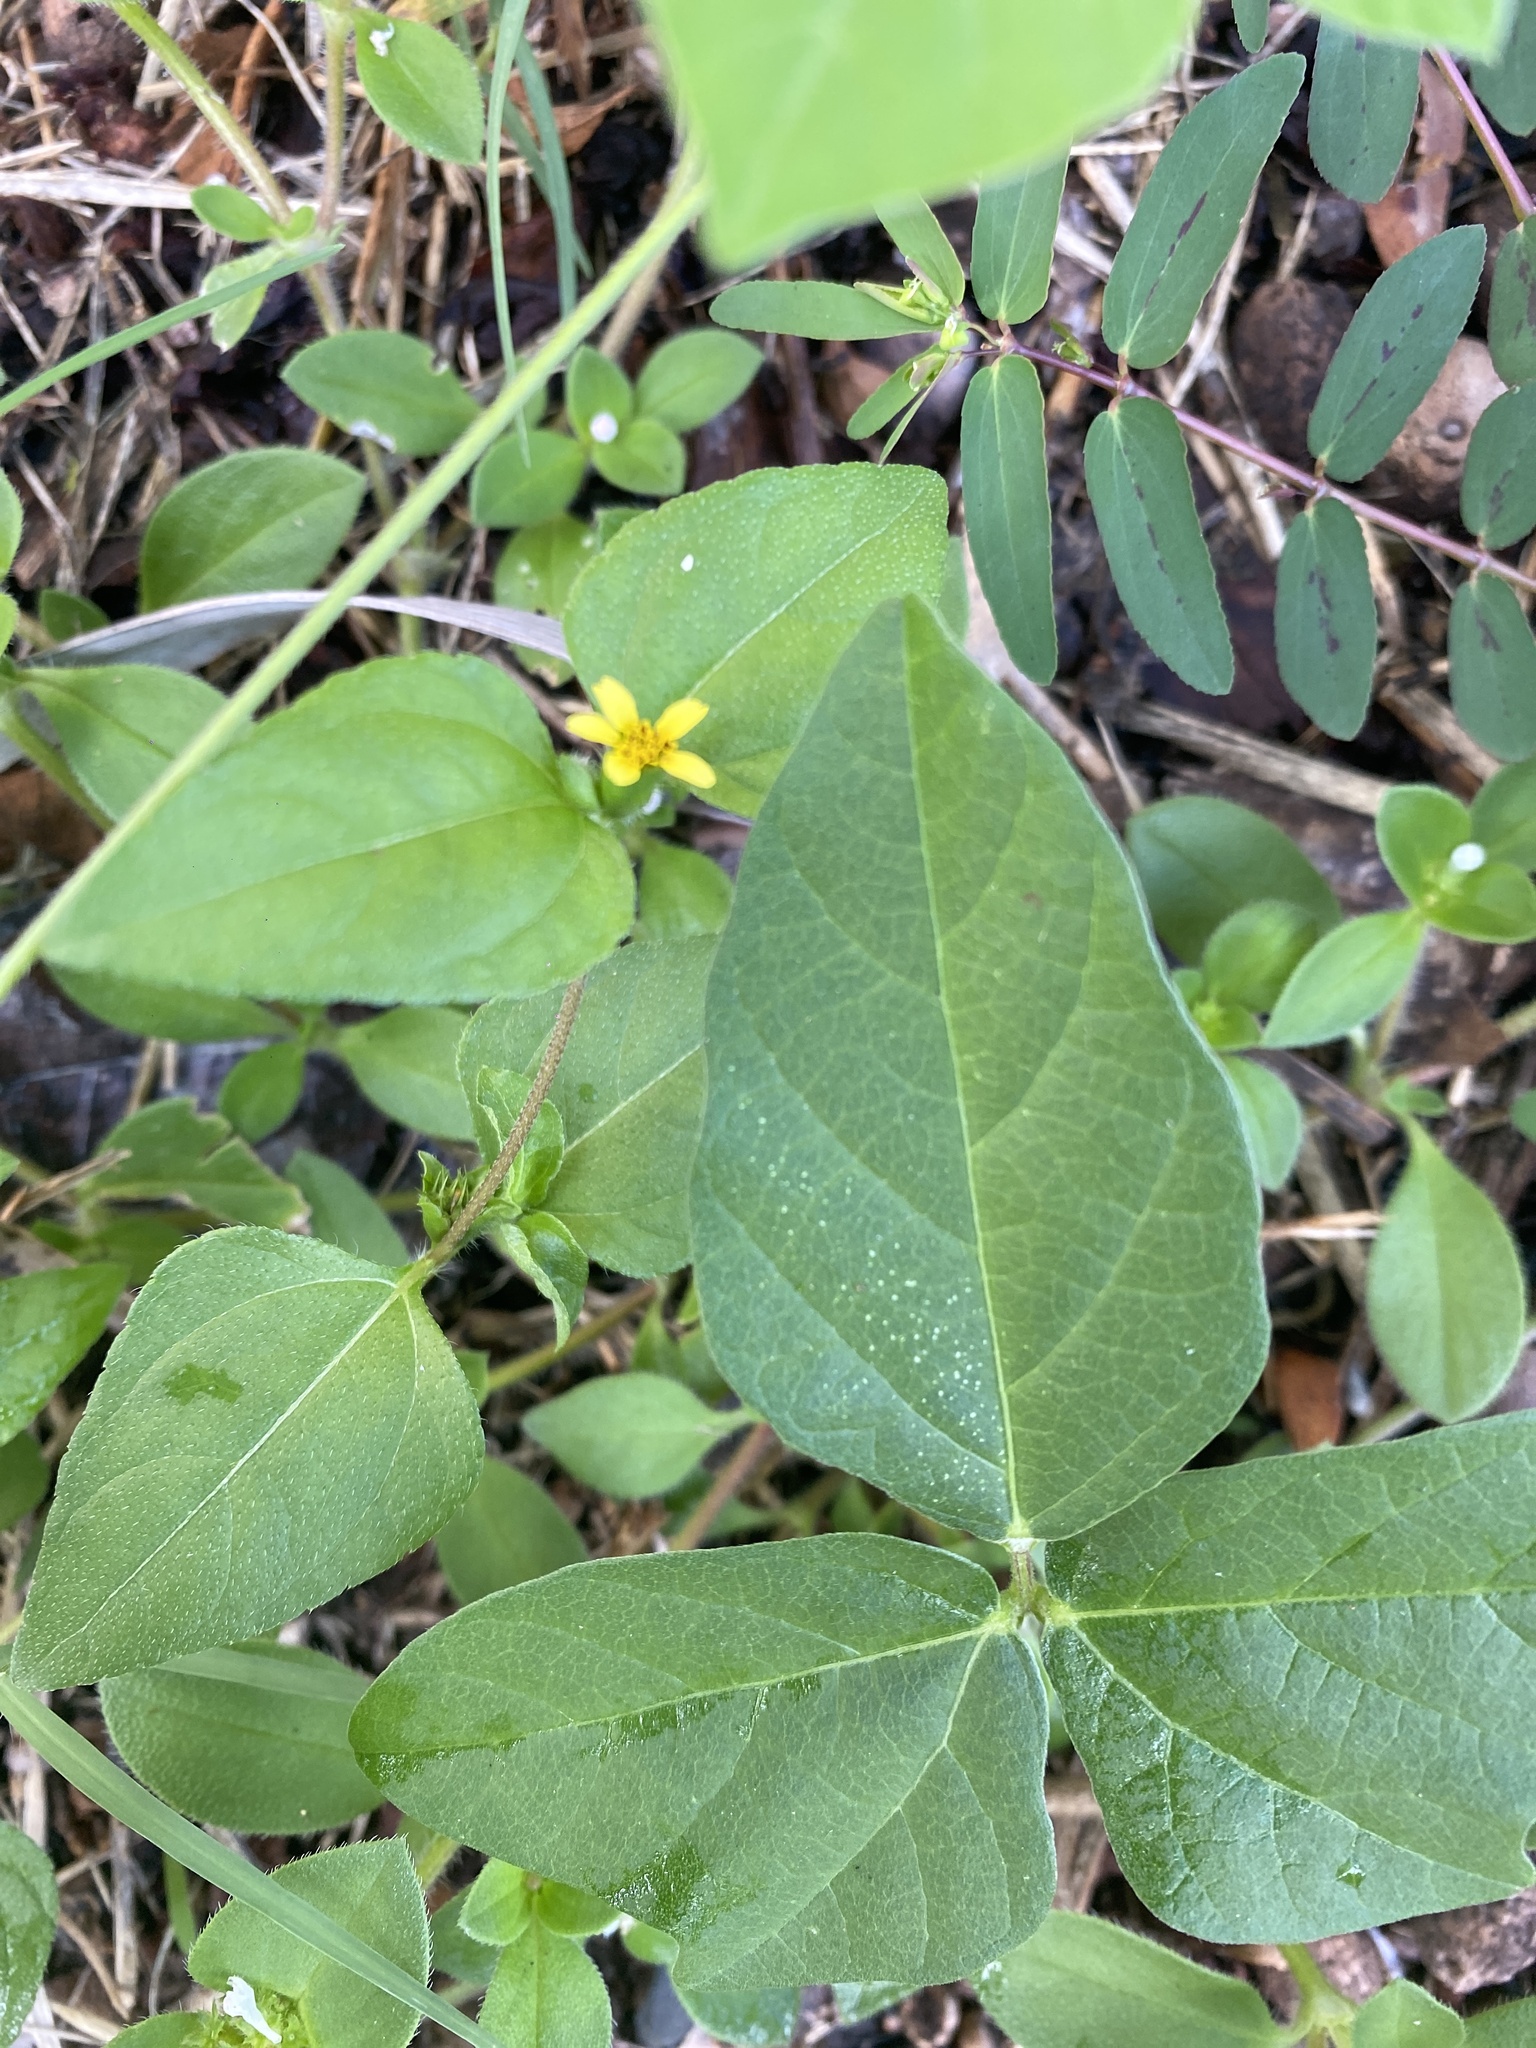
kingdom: Plantae
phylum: Tracheophyta
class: Magnoliopsida
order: Asterales
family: Asteraceae
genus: Calyptocarpus
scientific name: Calyptocarpus vialis
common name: Straggler daisy
